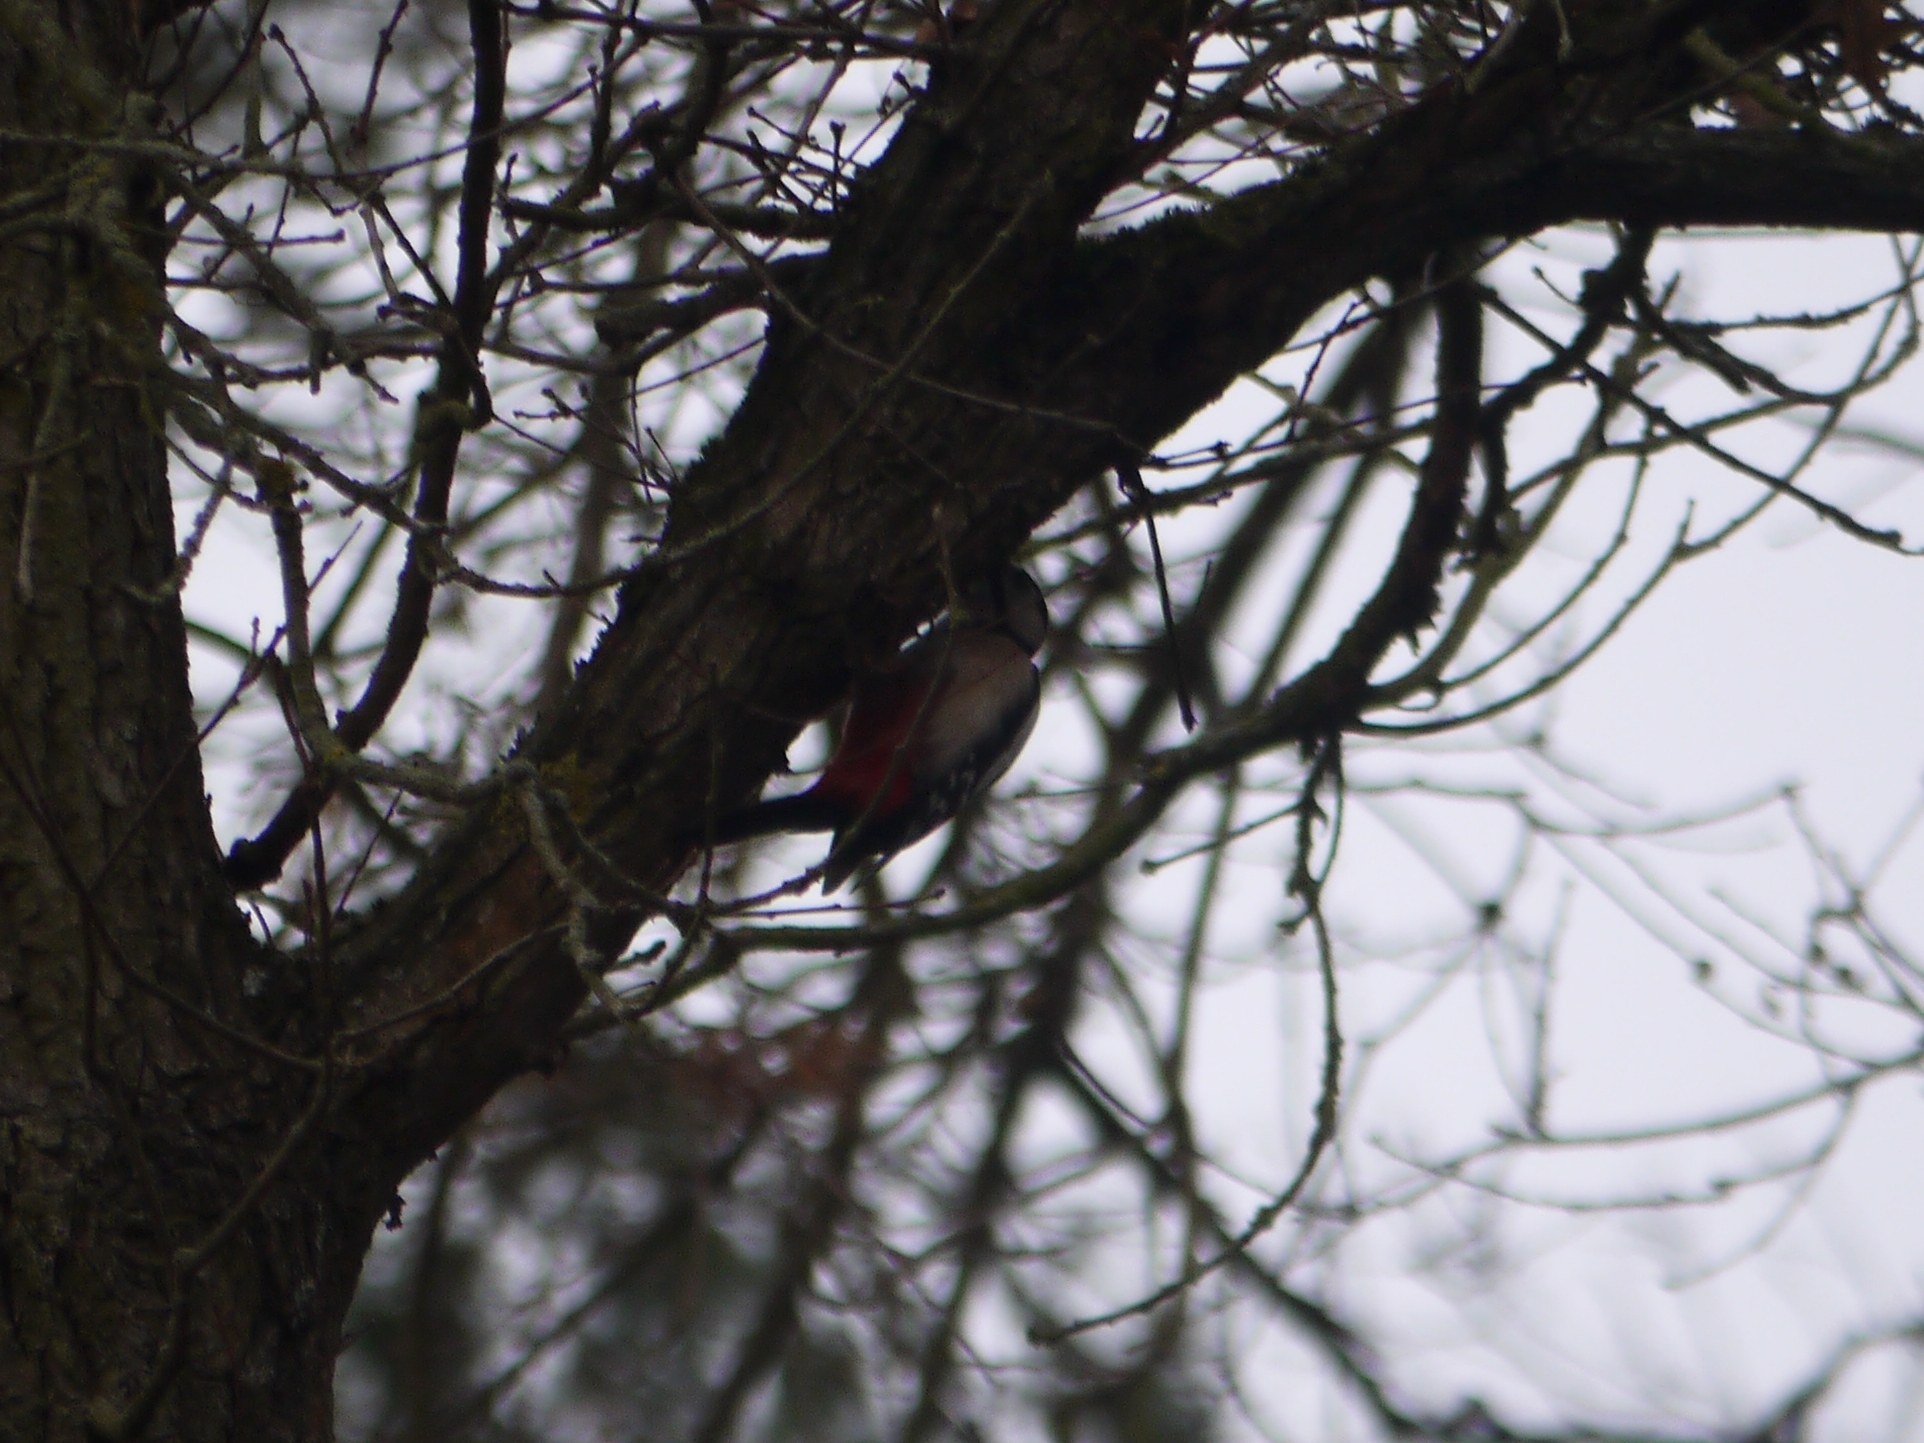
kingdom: Animalia
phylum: Chordata
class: Aves
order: Piciformes
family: Picidae
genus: Dendrocopos
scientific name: Dendrocopos major
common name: Great spotted woodpecker
